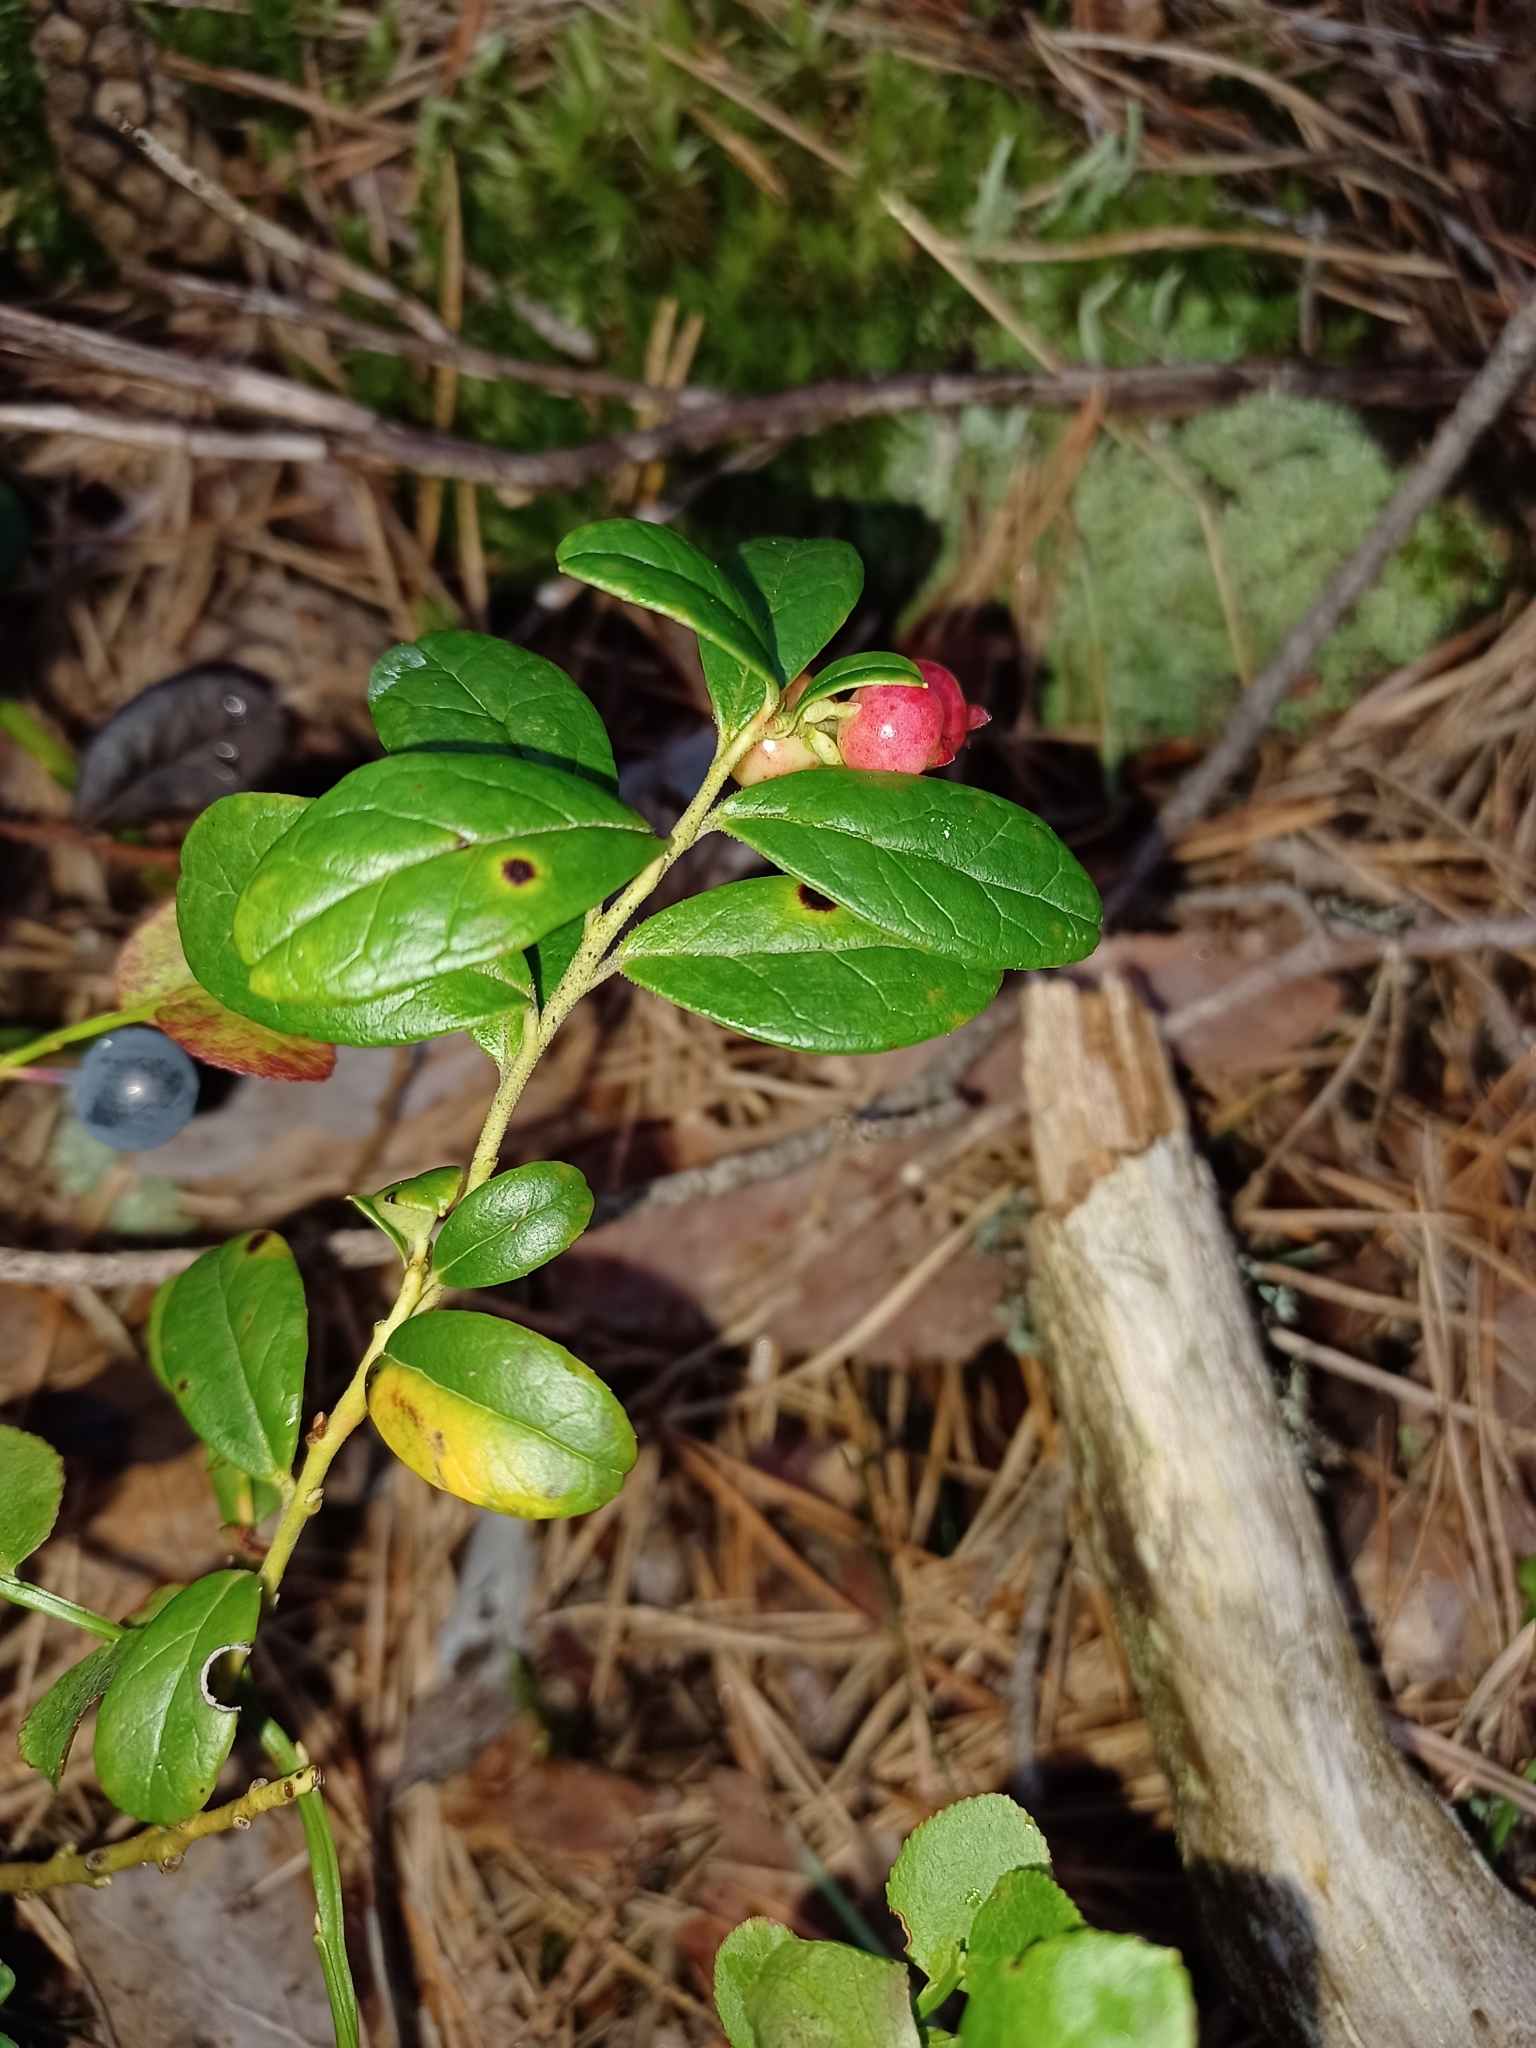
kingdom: Plantae
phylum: Tracheophyta
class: Magnoliopsida
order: Ericales
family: Ericaceae
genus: Vaccinium
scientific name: Vaccinium vitis-idaea
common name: Cowberry
